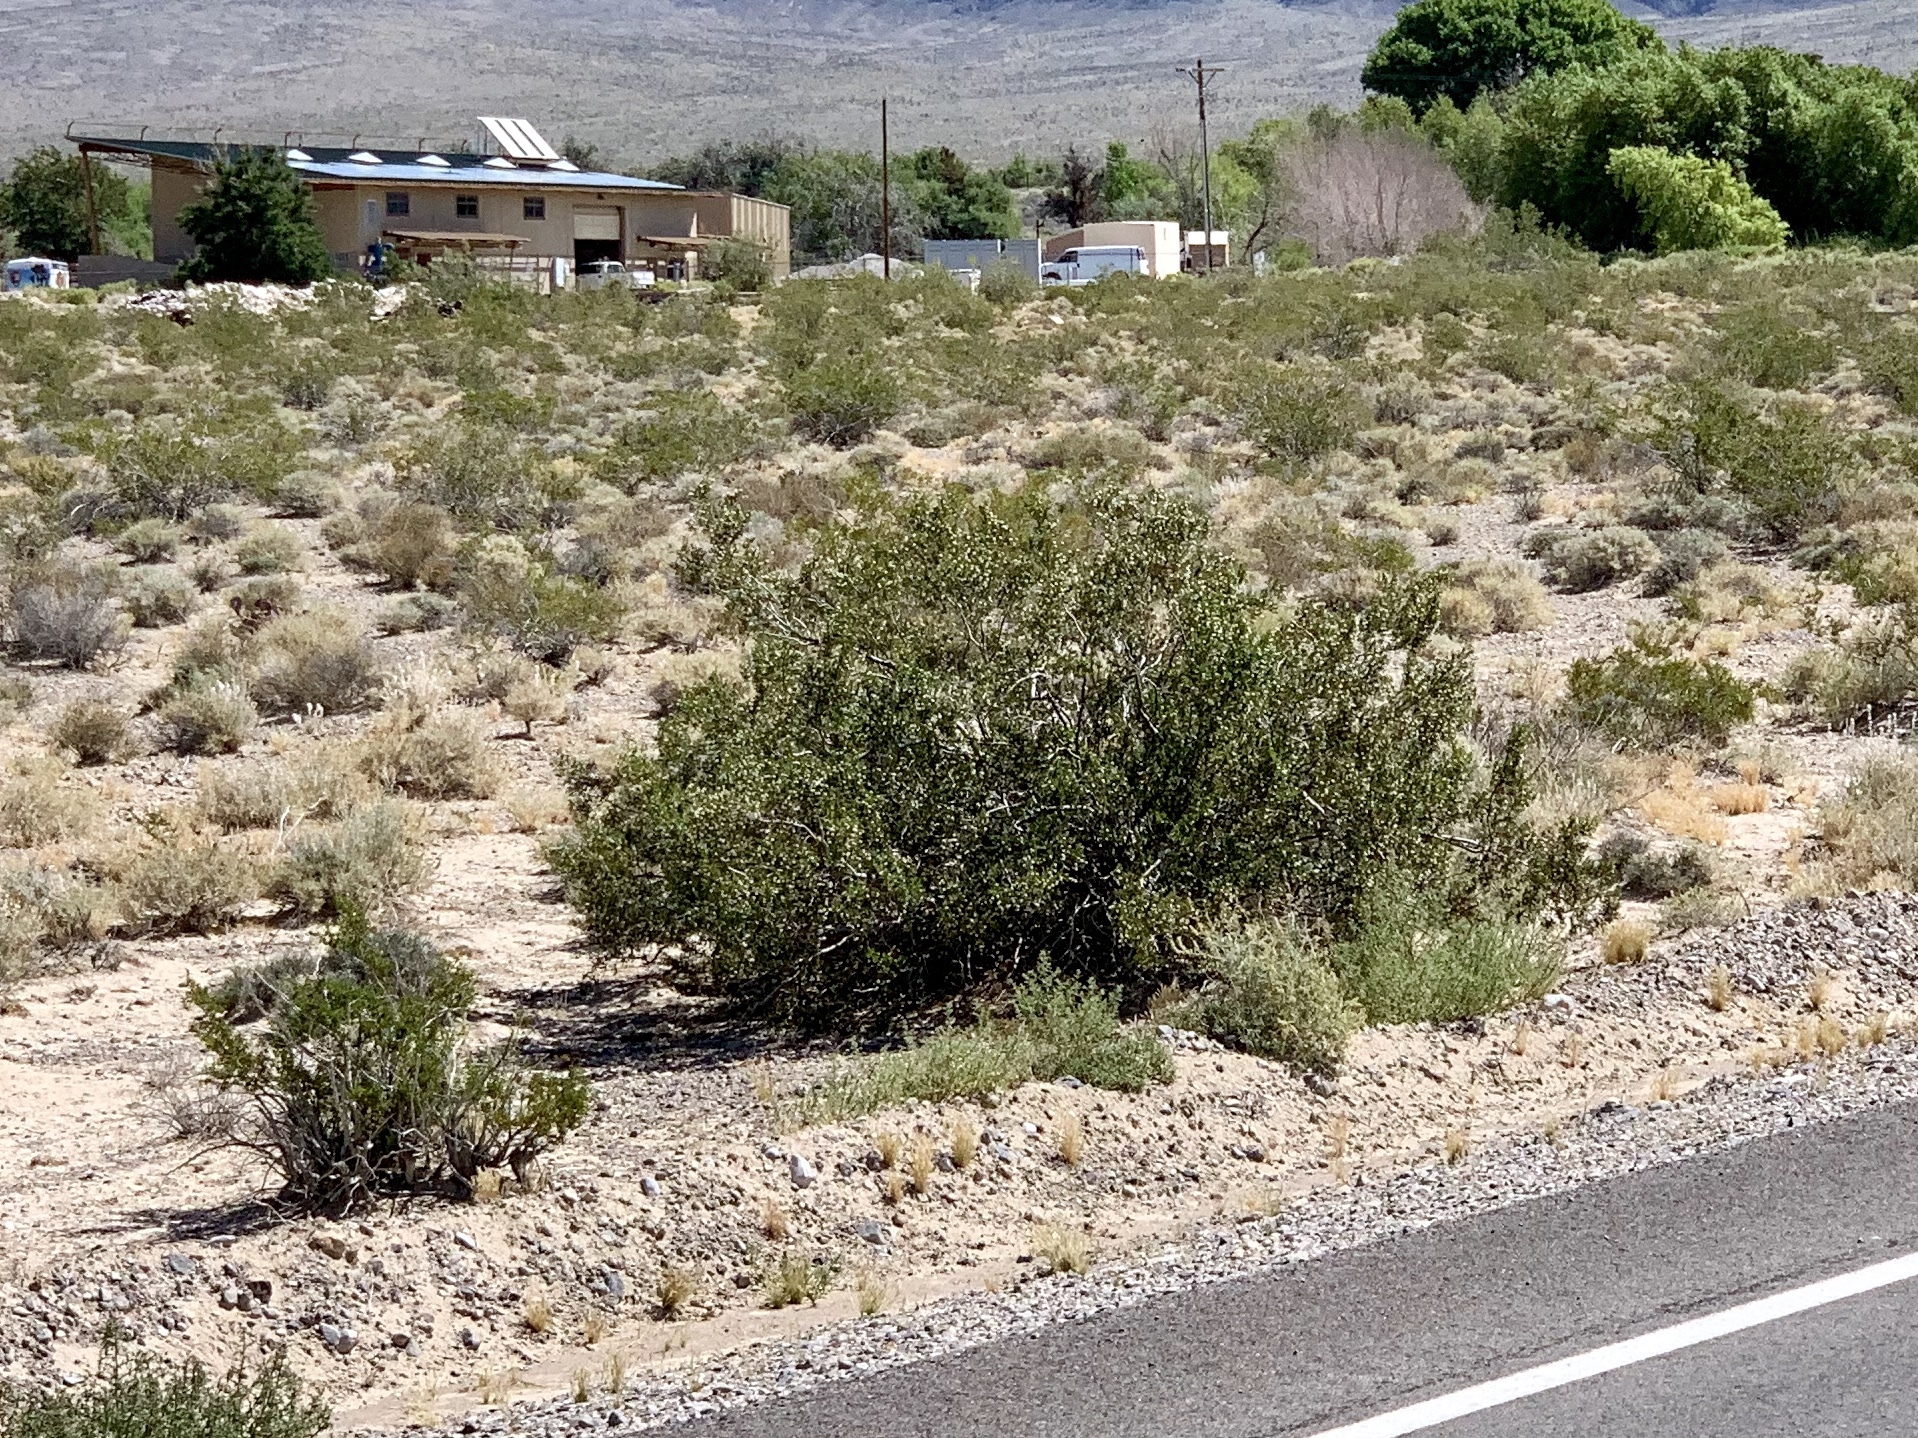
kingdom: Plantae
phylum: Tracheophyta
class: Magnoliopsida
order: Zygophyllales
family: Zygophyllaceae
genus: Larrea
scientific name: Larrea tridentata
